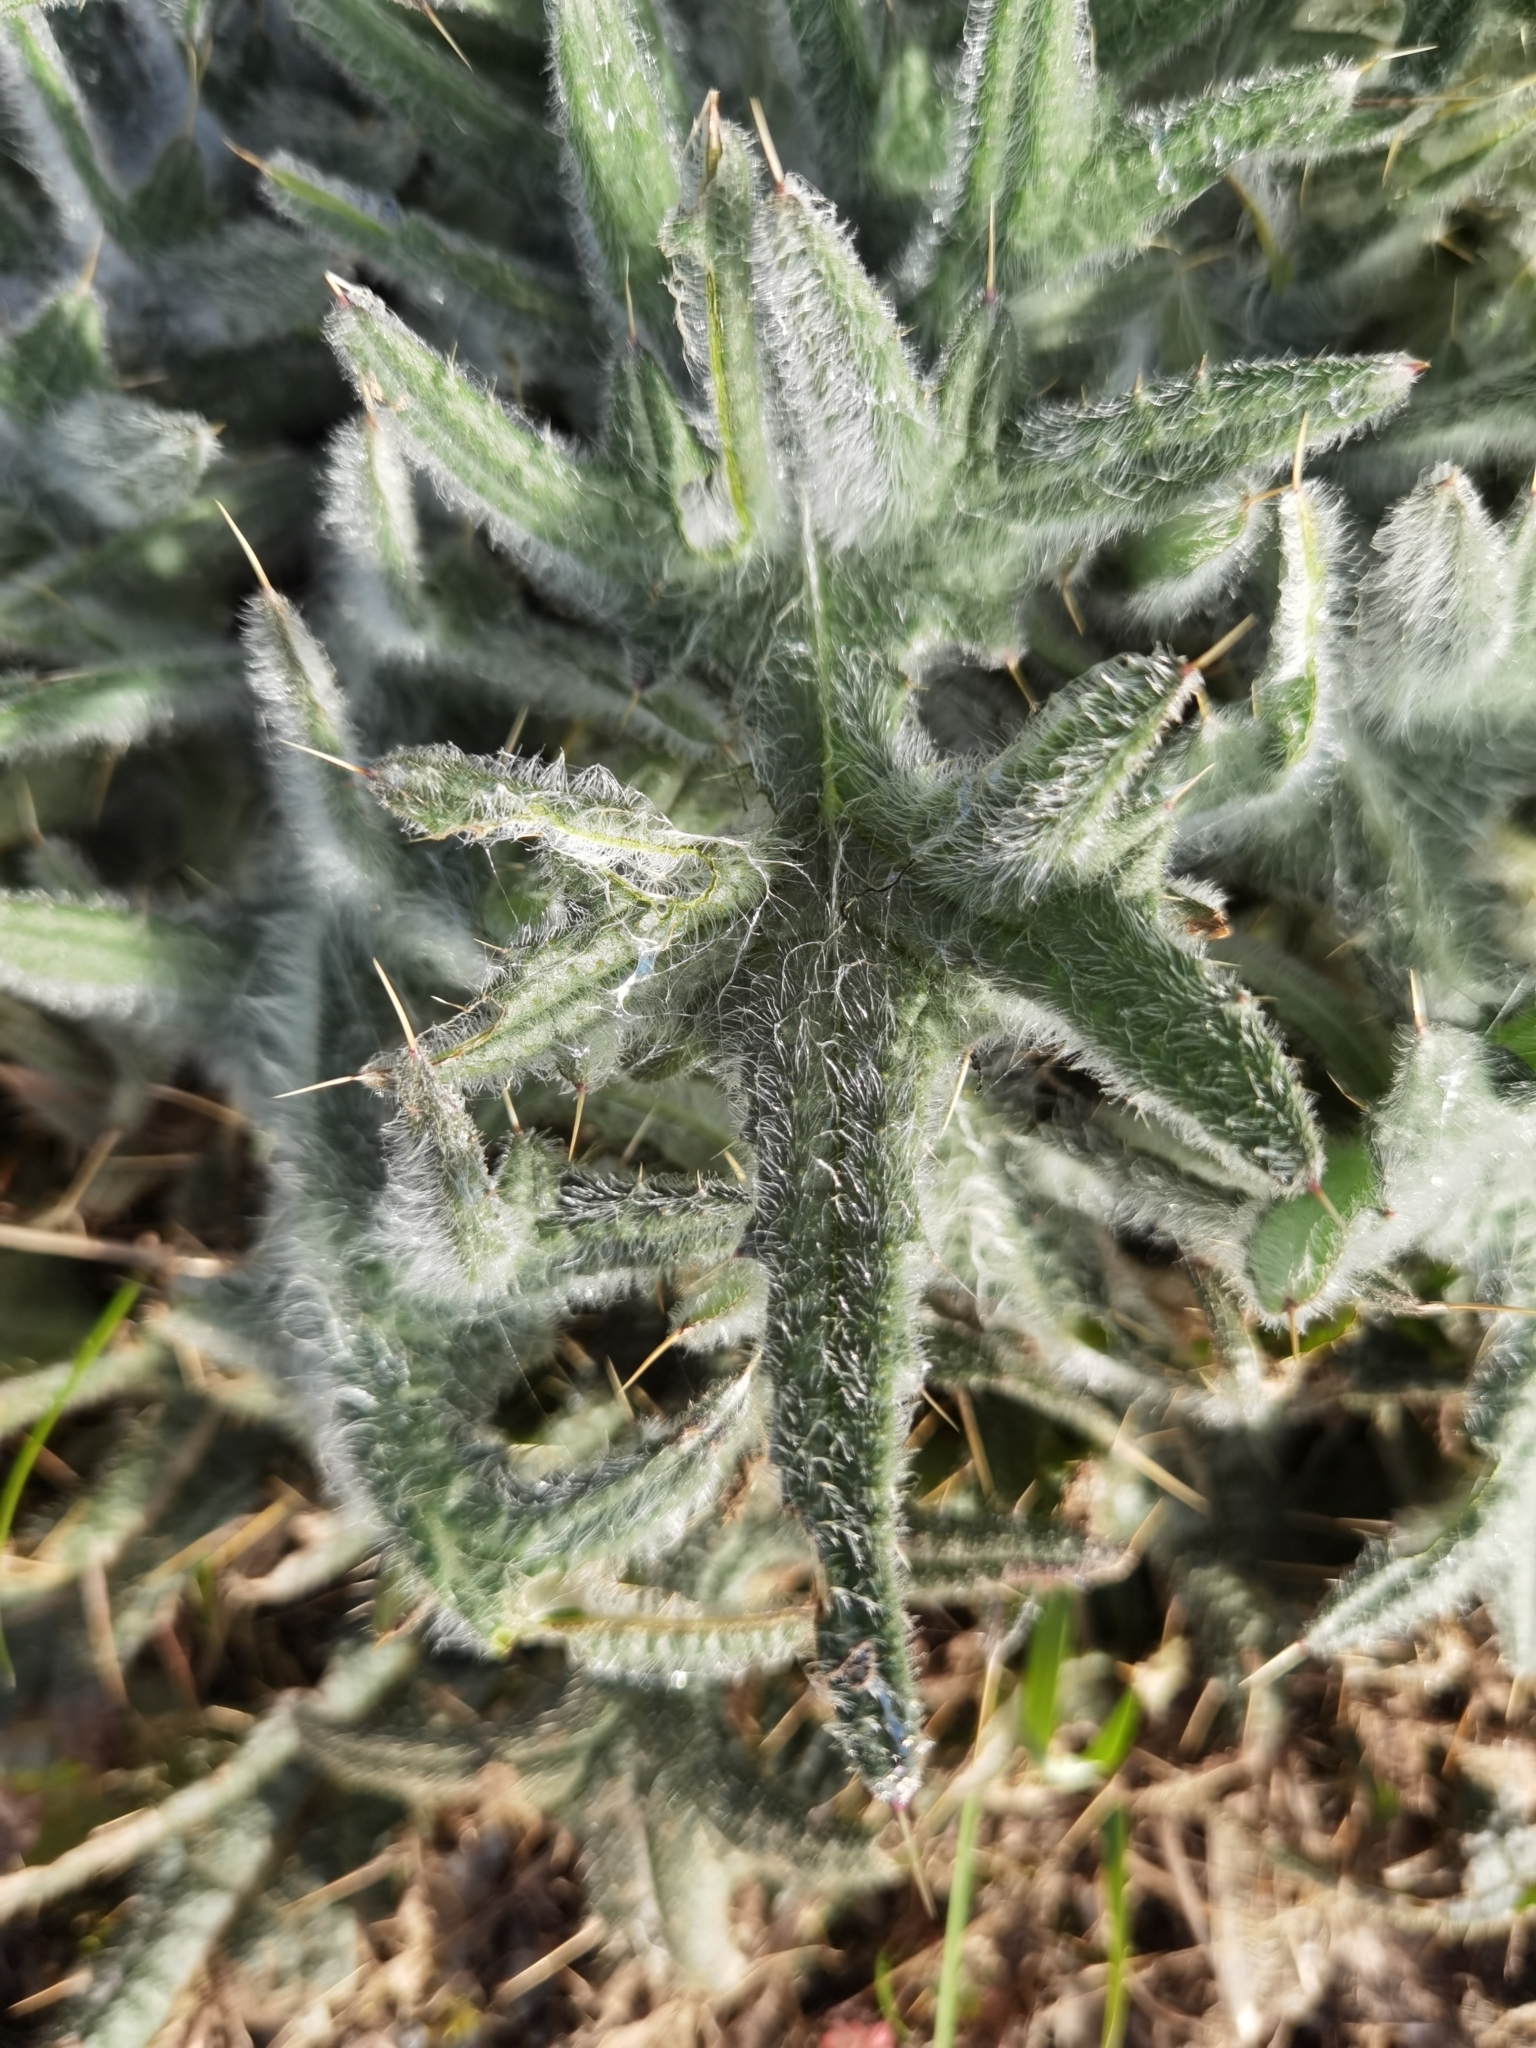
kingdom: Plantae
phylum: Tracheophyta
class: Magnoliopsida
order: Asterales
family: Asteraceae
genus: Cirsium
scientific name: Cirsium vulgare
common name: Bull thistle
